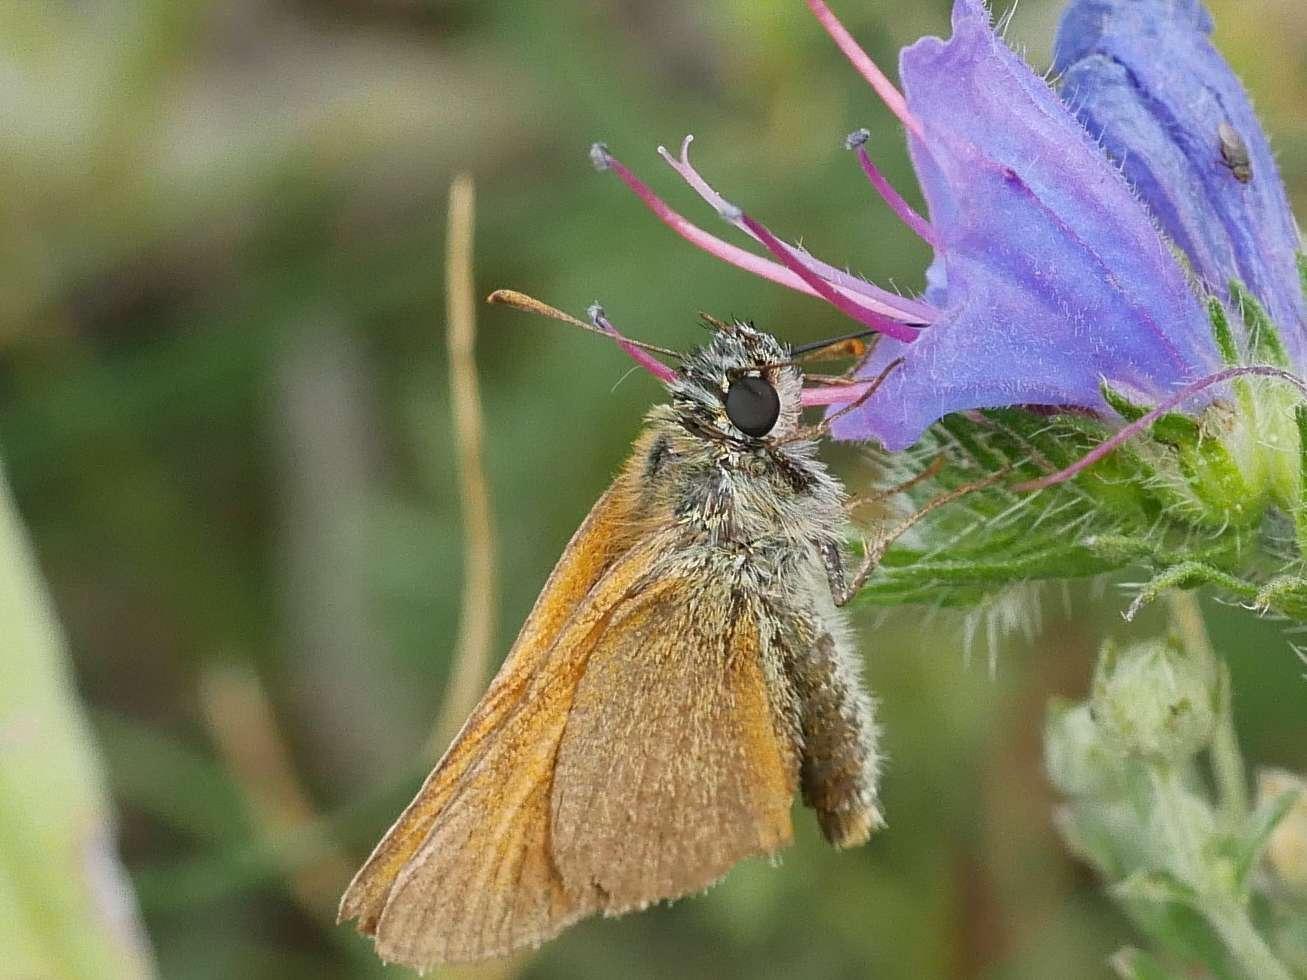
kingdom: Animalia
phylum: Arthropoda
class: Insecta
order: Lepidoptera
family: Hesperiidae
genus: Thymelicus
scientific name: Thymelicus sylvestris
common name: Small skipper
